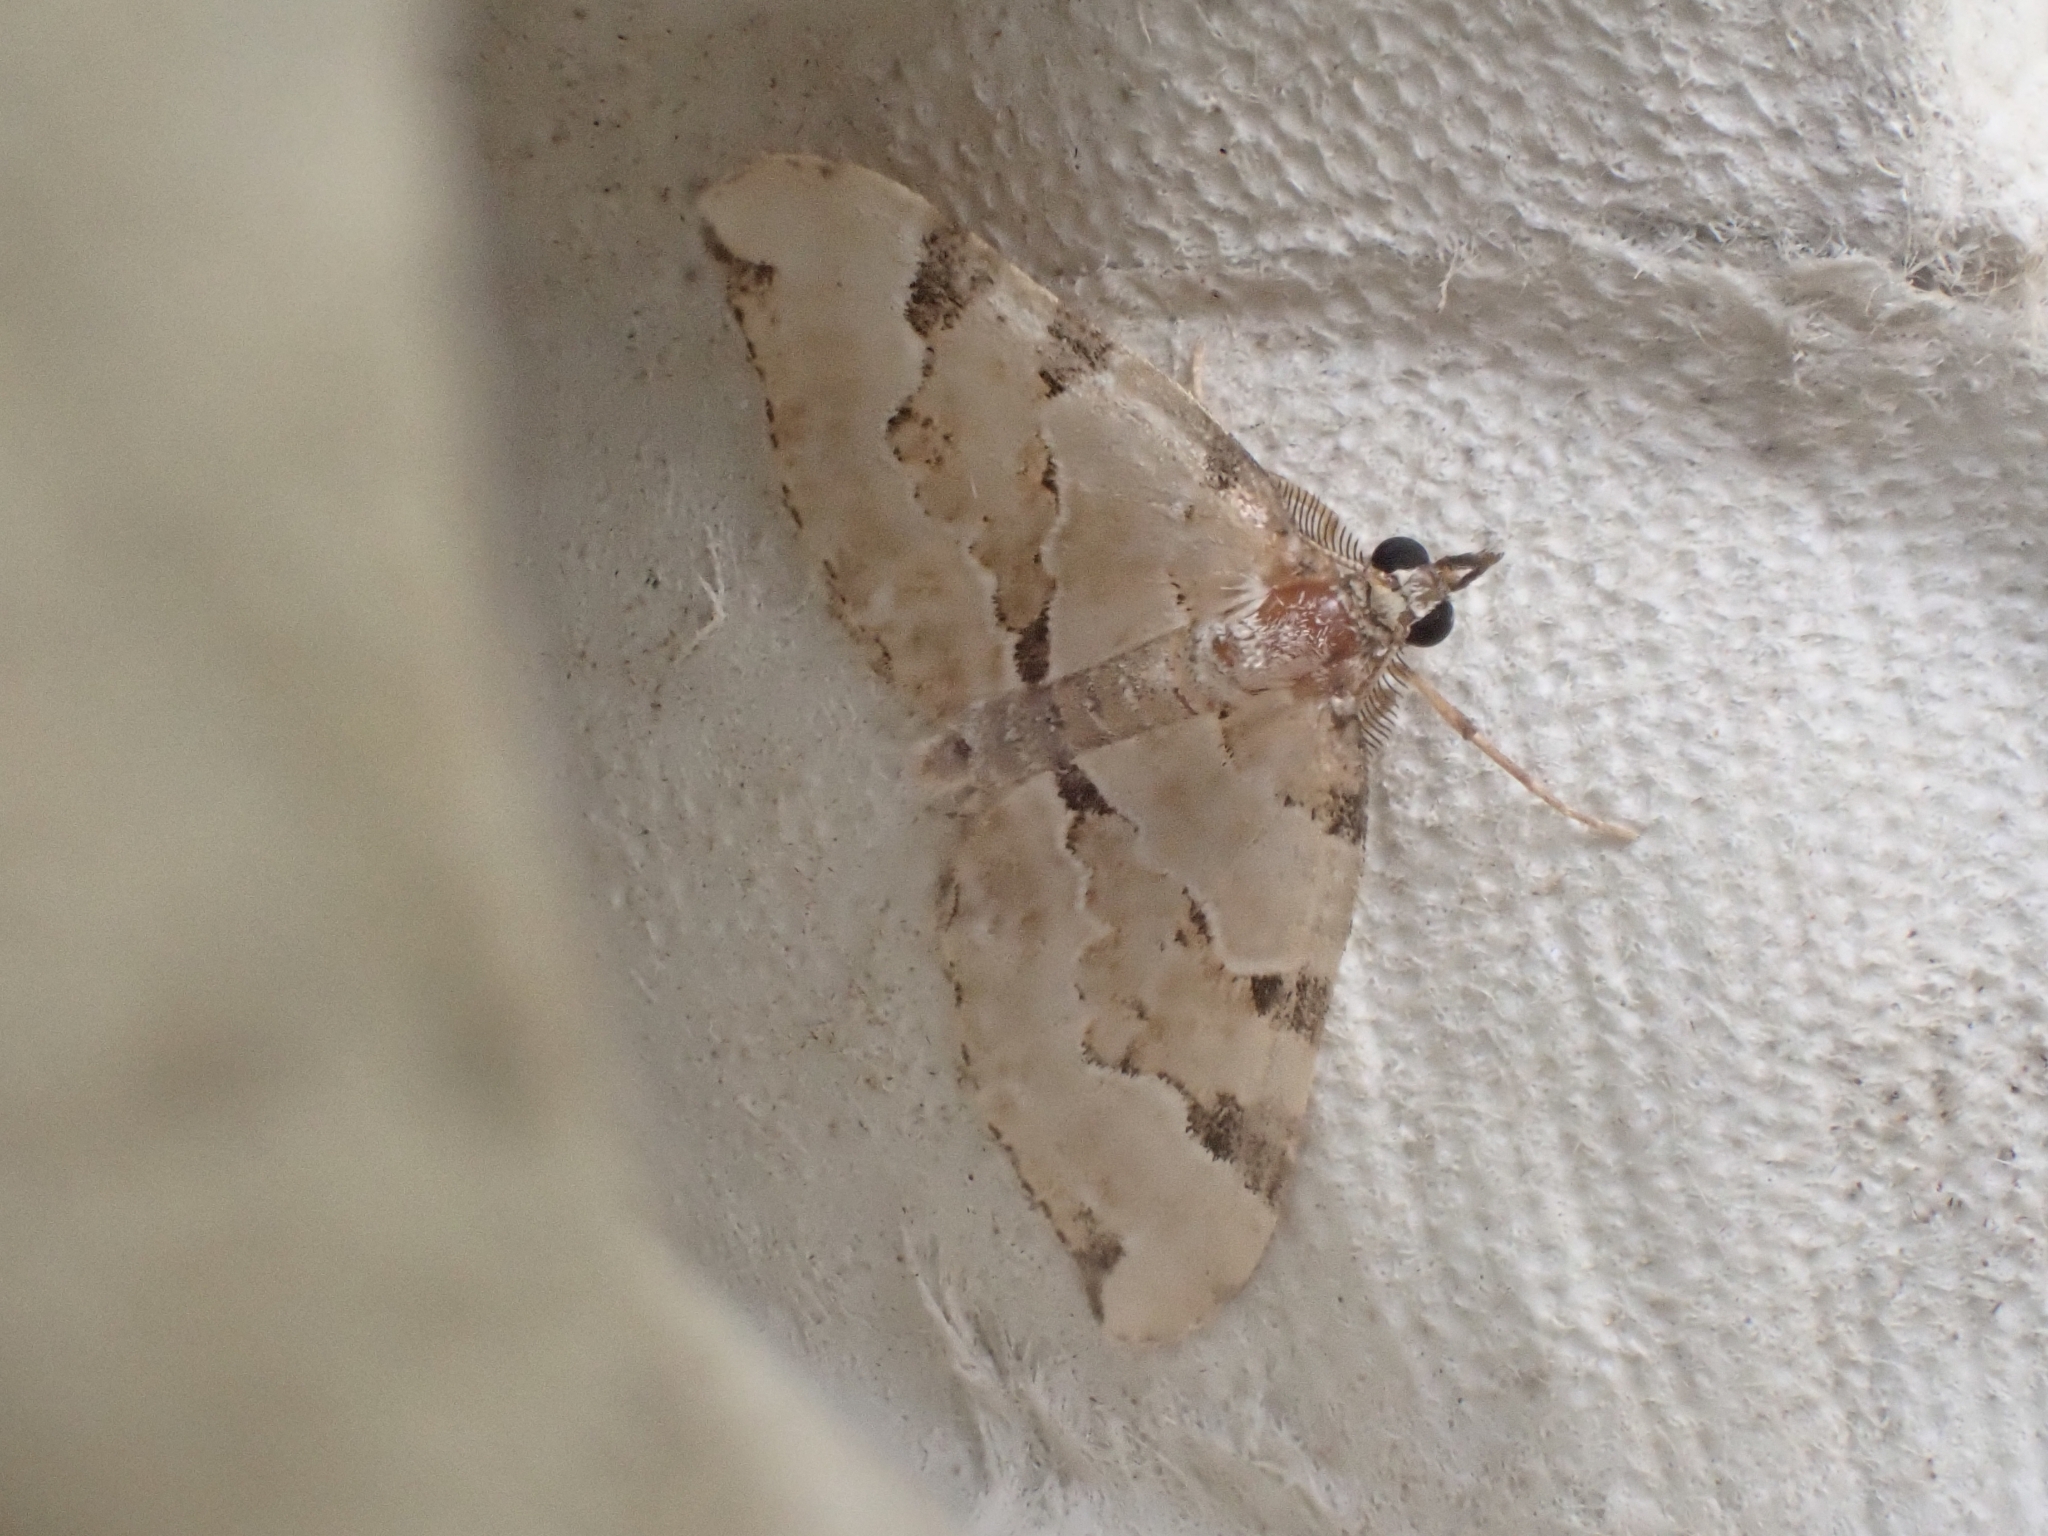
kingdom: Animalia
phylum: Arthropoda
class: Insecta
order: Lepidoptera
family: Geometridae
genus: Colostygia
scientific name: Colostygia pectinataria
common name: Green carpet
